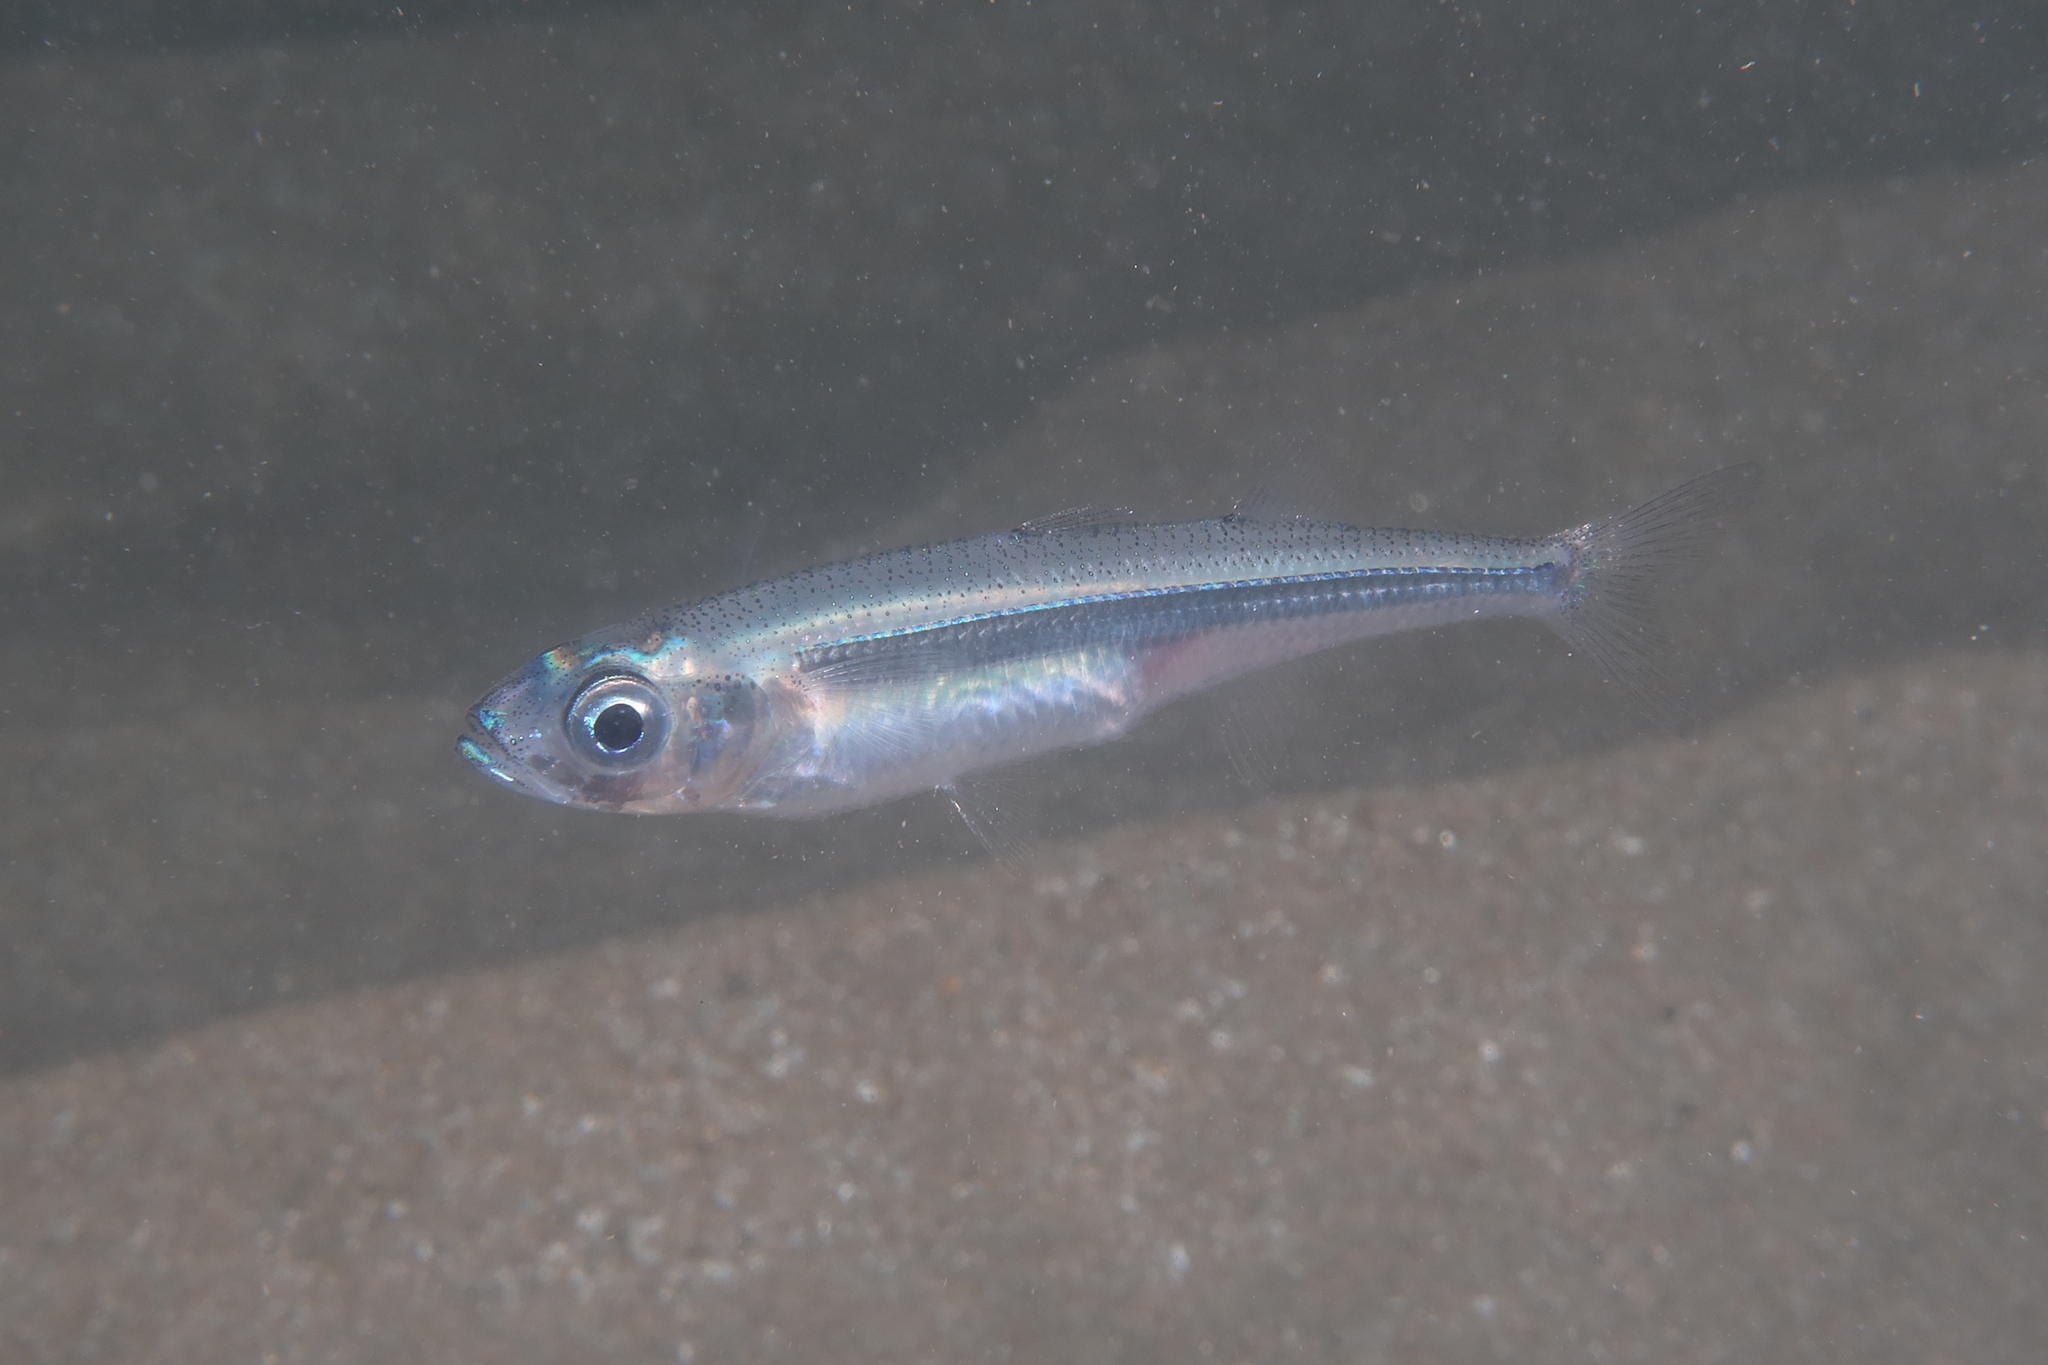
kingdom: Animalia
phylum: Chordata
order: Atheriniformes
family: Atherinidae
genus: Atherina
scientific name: Atherina boyeri
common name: Big-scale sand smelt
